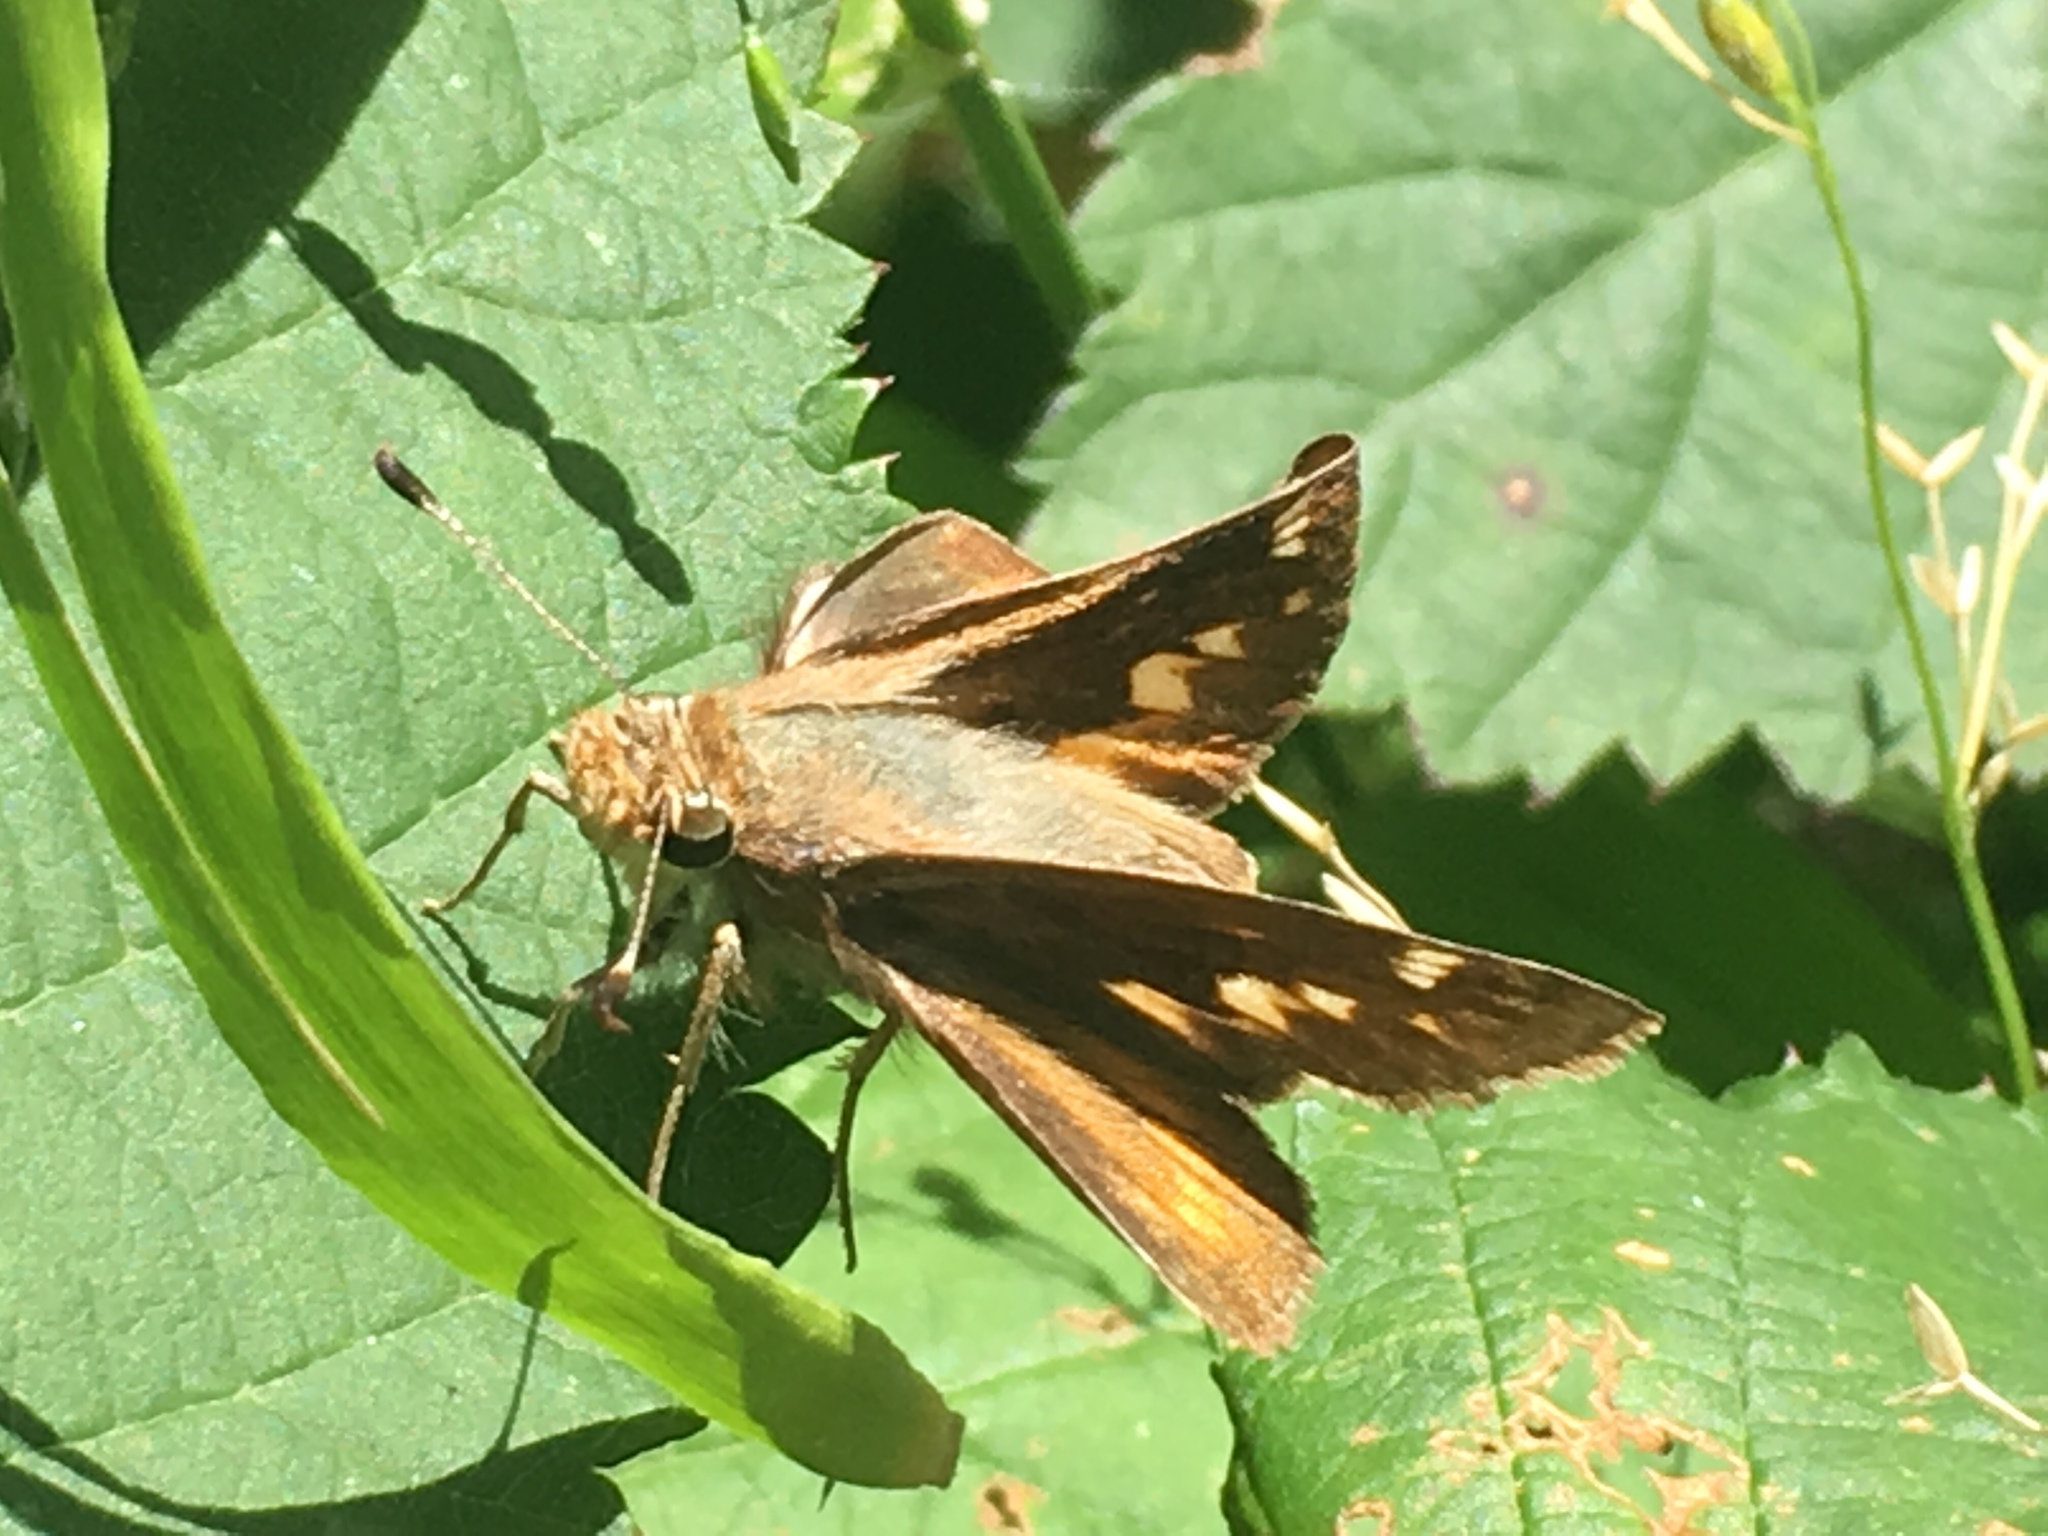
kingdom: Animalia
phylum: Arthropoda
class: Insecta
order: Lepidoptera
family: Hesperiidae
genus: Lon
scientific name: Lon melane
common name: Umber skipper
